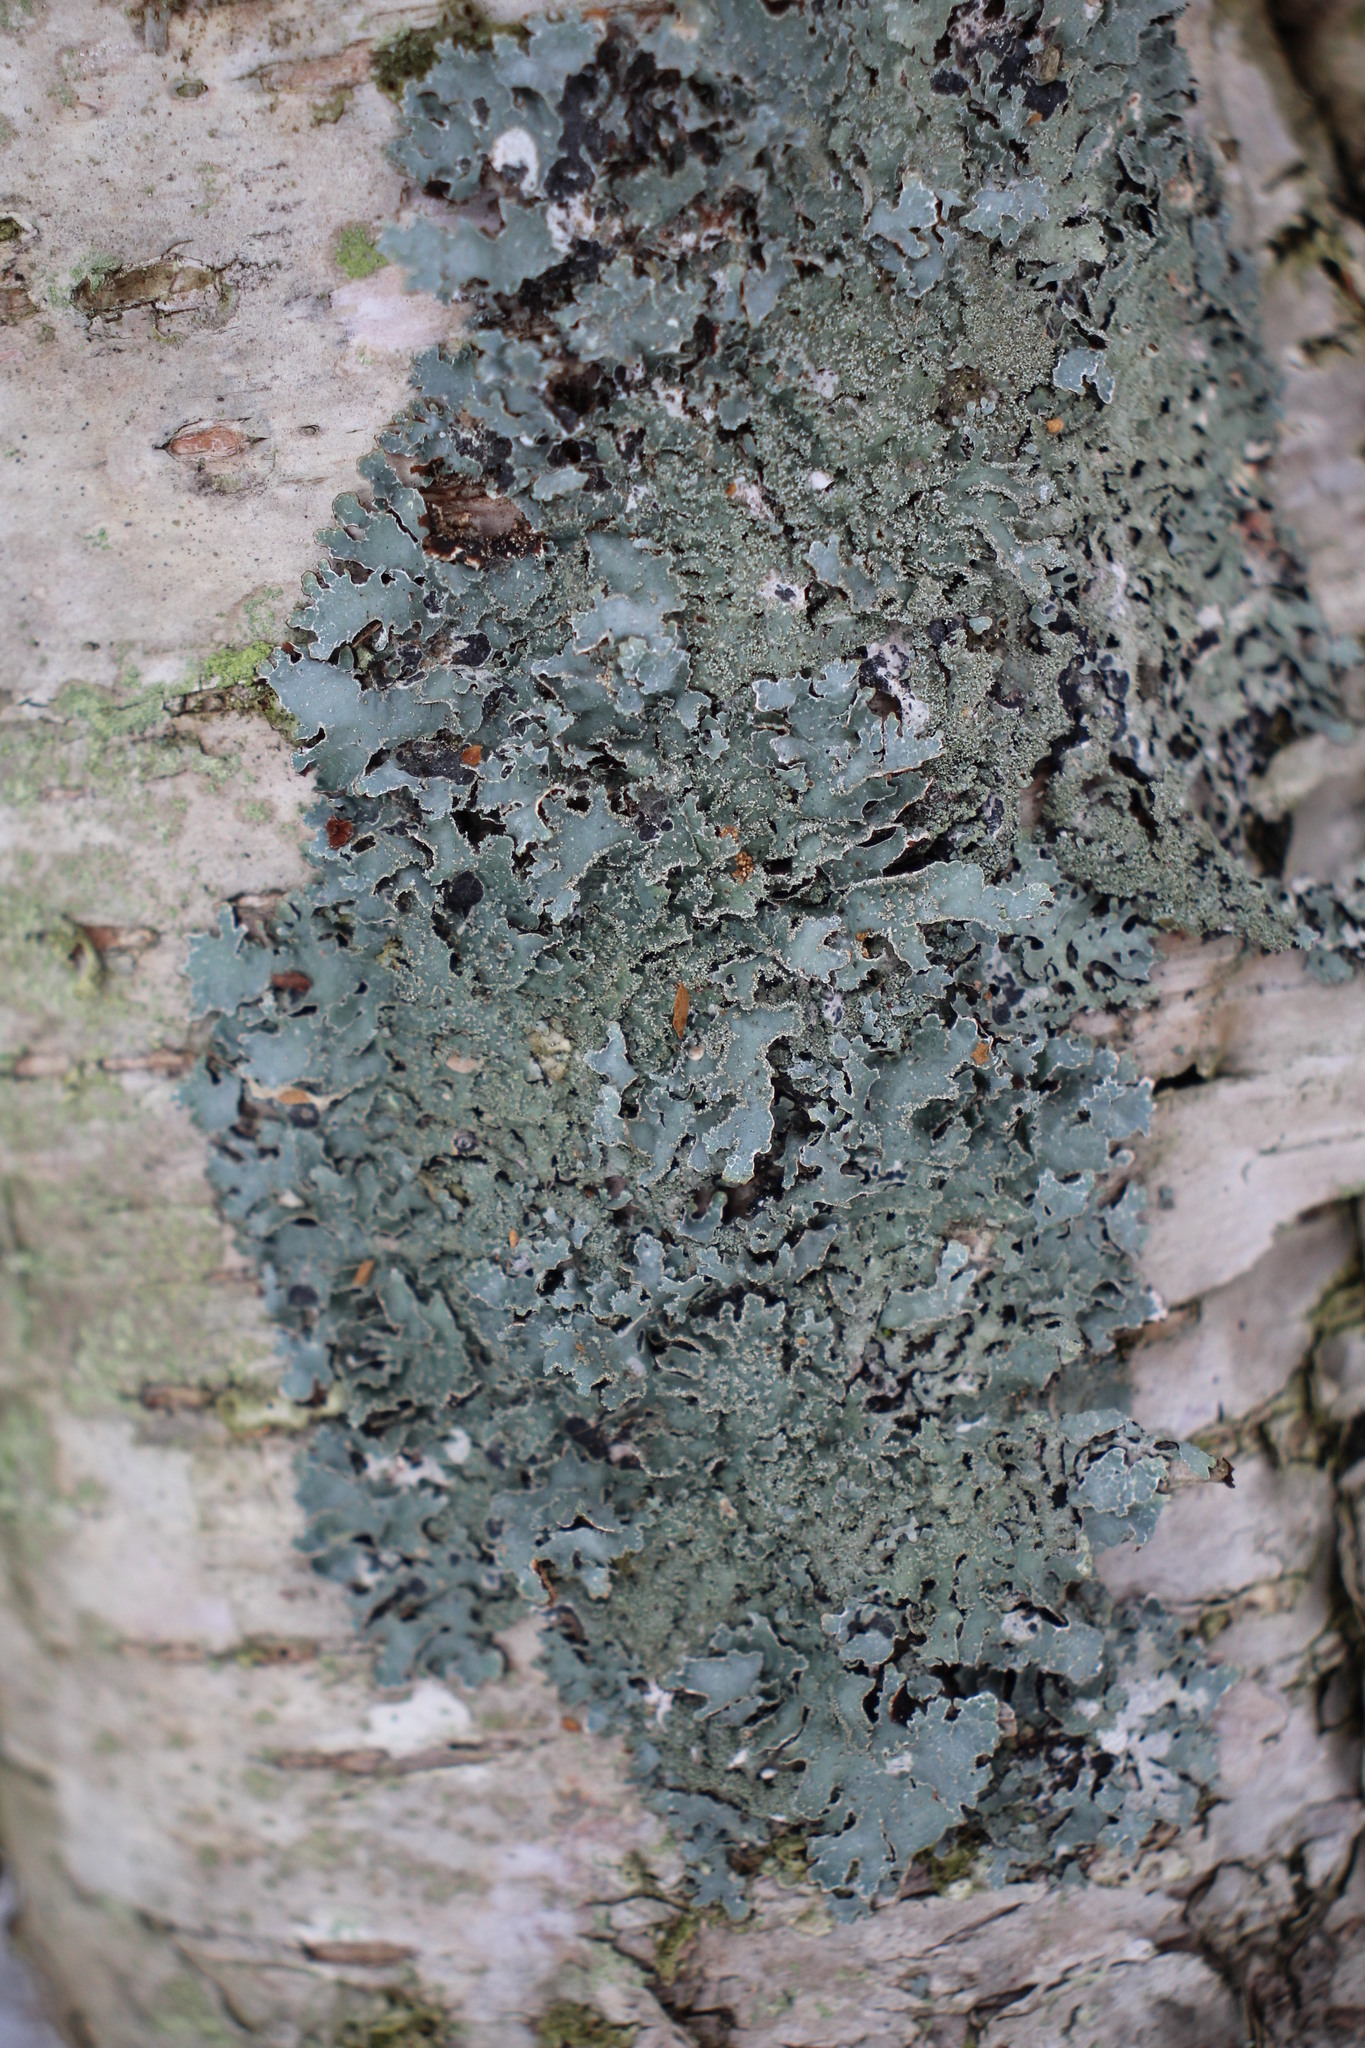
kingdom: Fungi
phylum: Ascomycota
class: Lecanoromycetes
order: Lecanorales
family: Parmeliaceae
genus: Parmelia
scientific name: Parmelia squarrosa
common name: Bottle brush shield lichen
